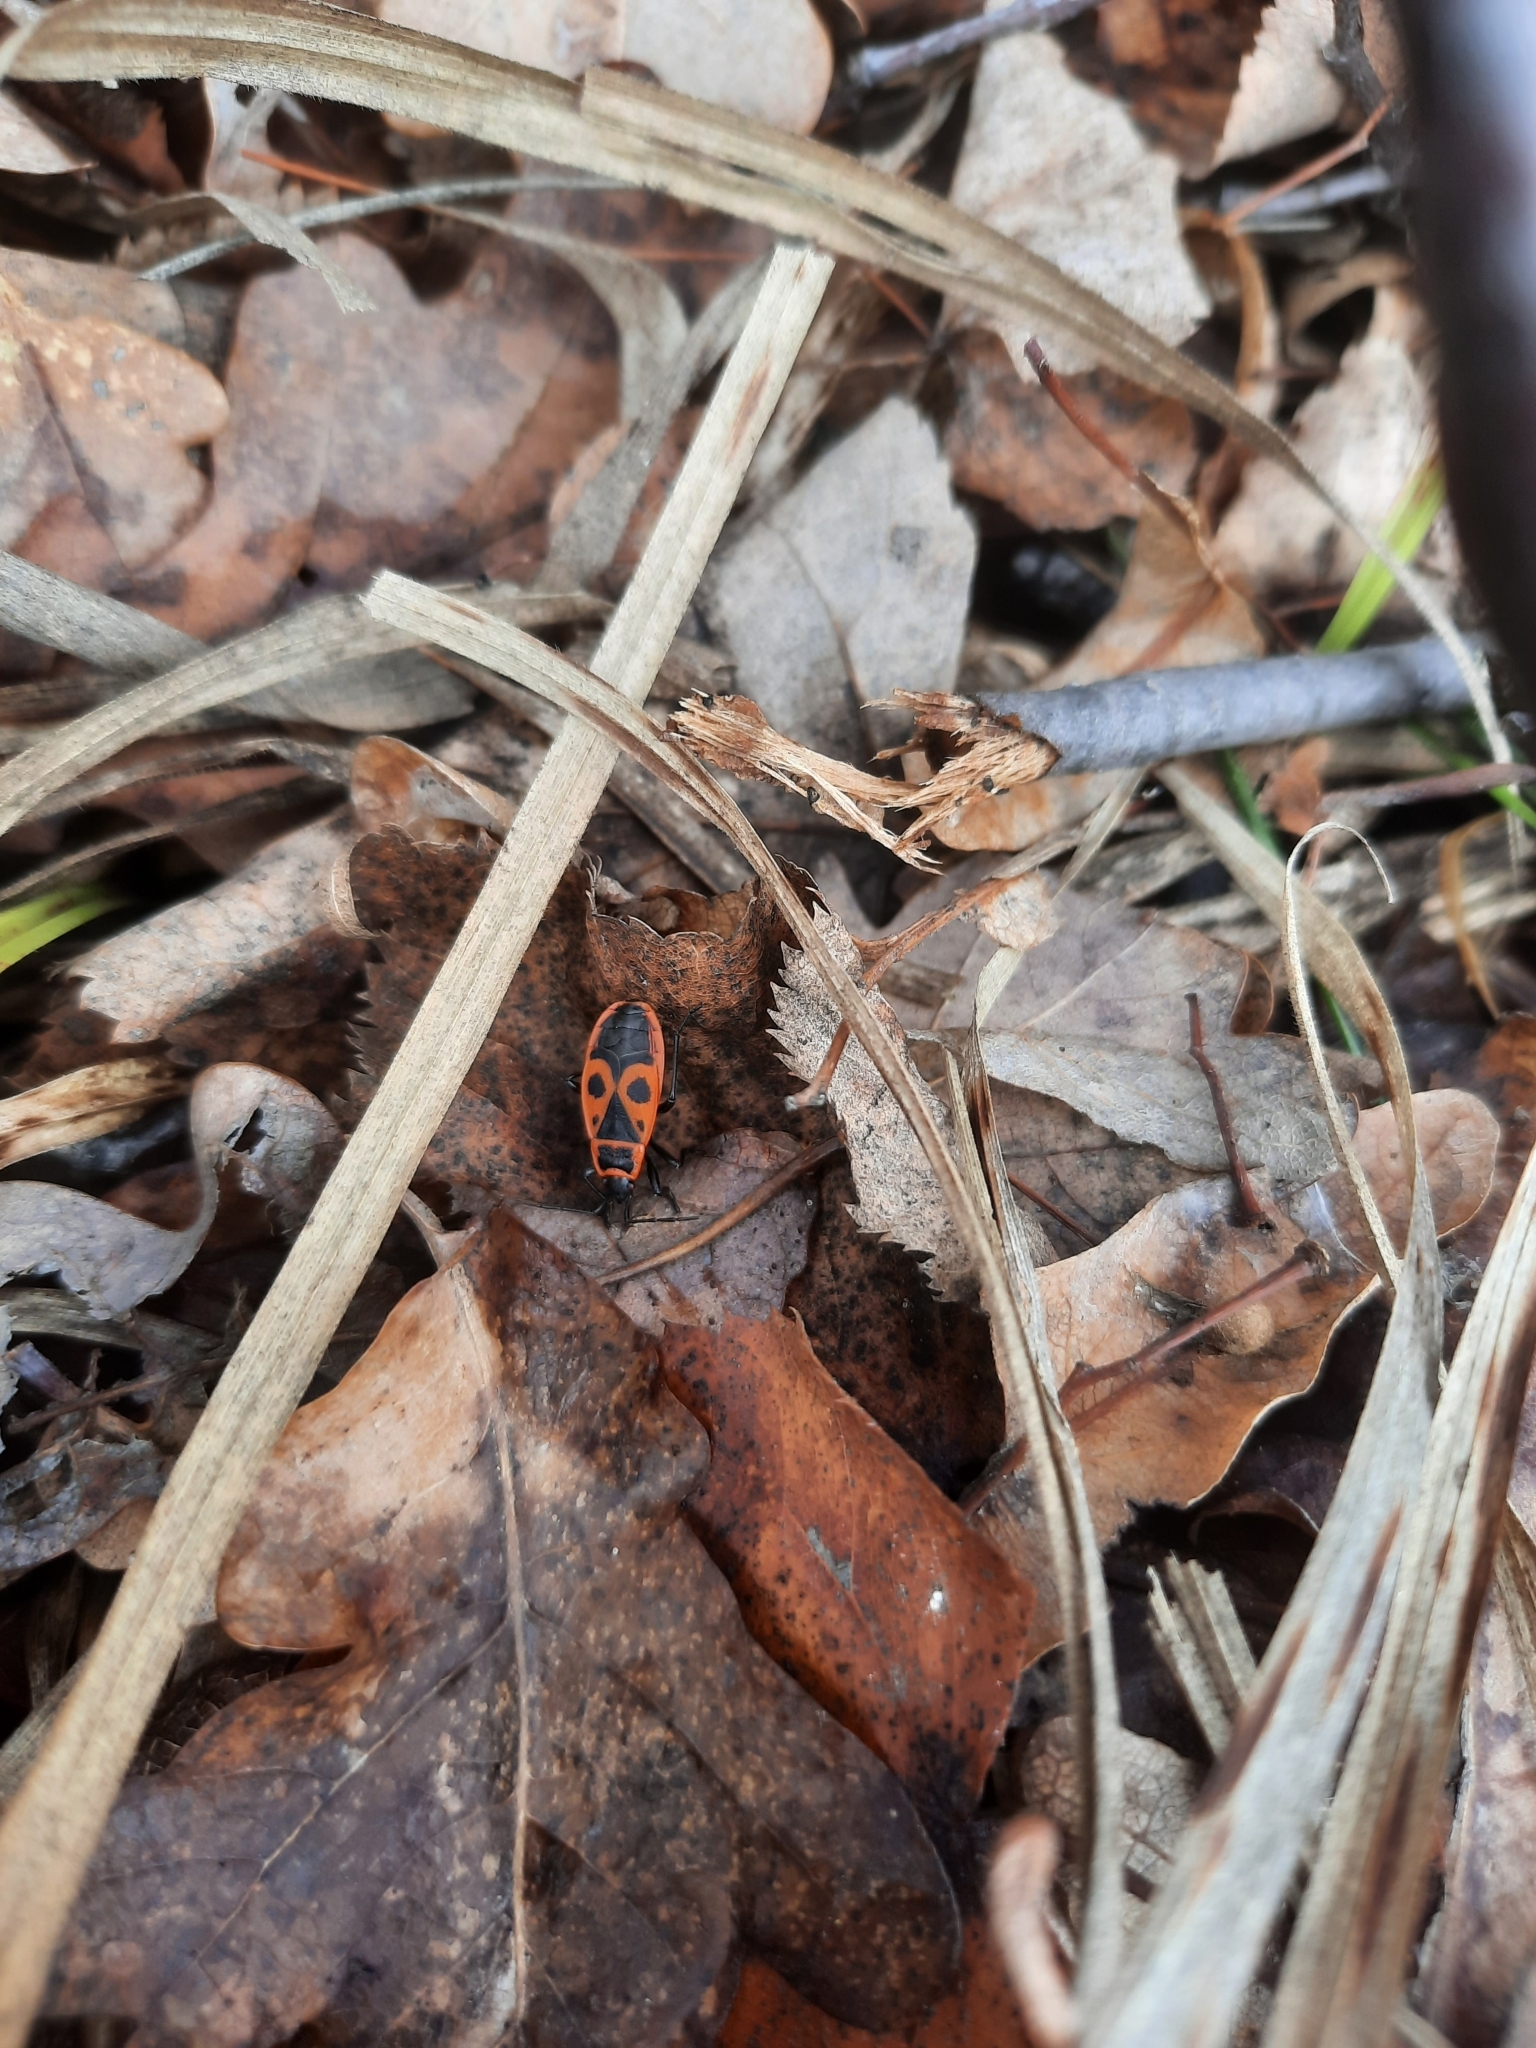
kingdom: Animalia
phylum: Arthropoda
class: Insecta
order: Hemiptera
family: Pyrrhocoridae
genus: Pyrrhocoris
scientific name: Pyrrhocoris apterus
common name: Firebug
